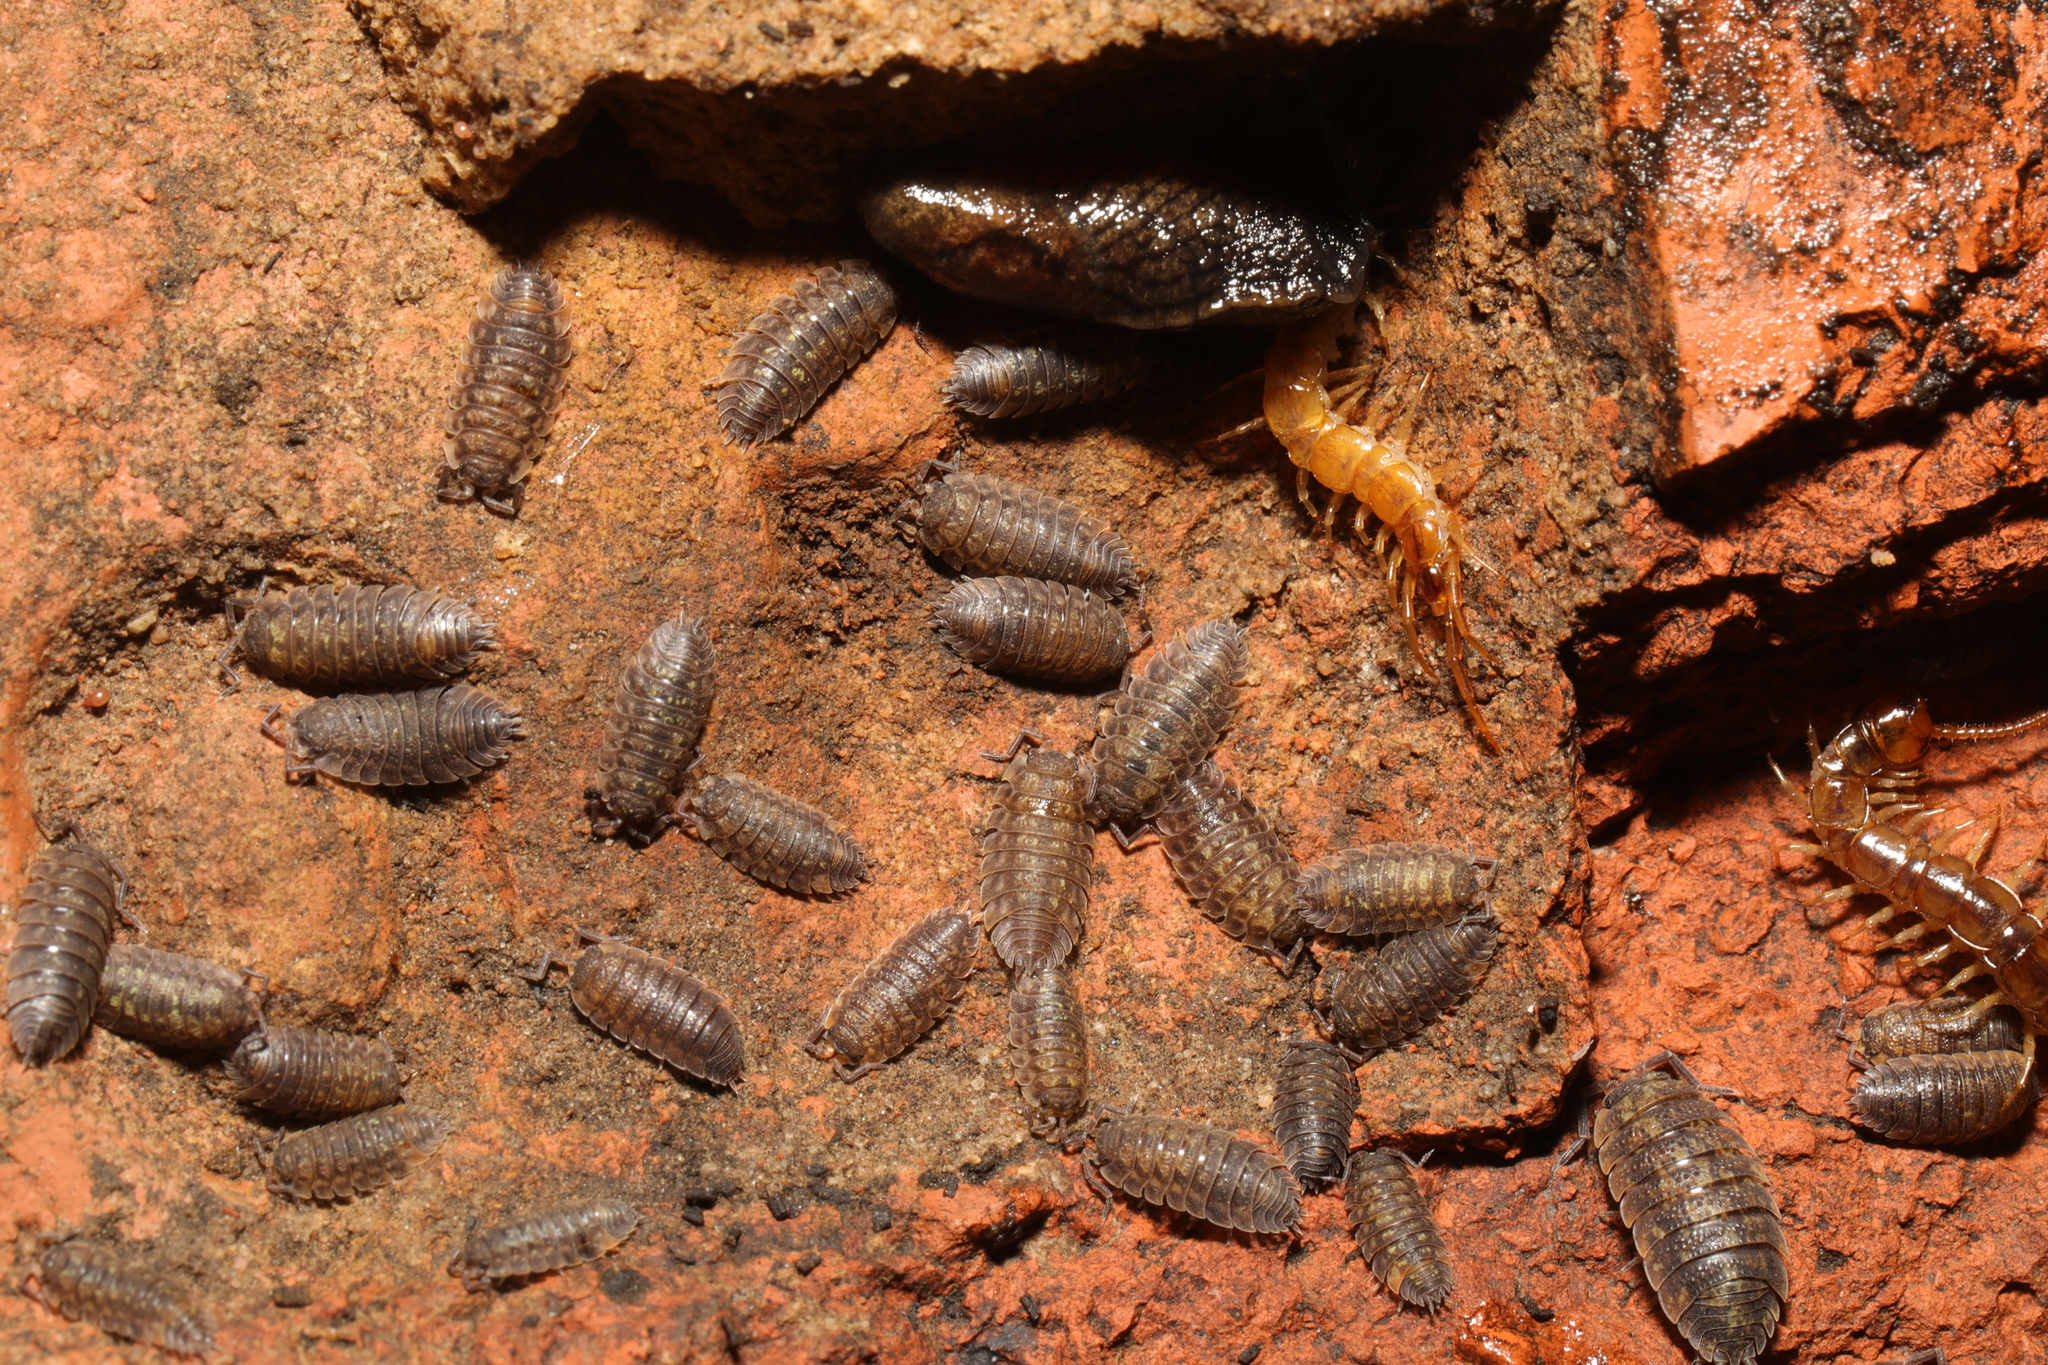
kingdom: Animalia
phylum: Arthropoda
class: Malacostraca
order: Isopoda
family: Porcellionidae
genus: Porcellio
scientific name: Porcellio scaber
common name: Common rough woodlouse
